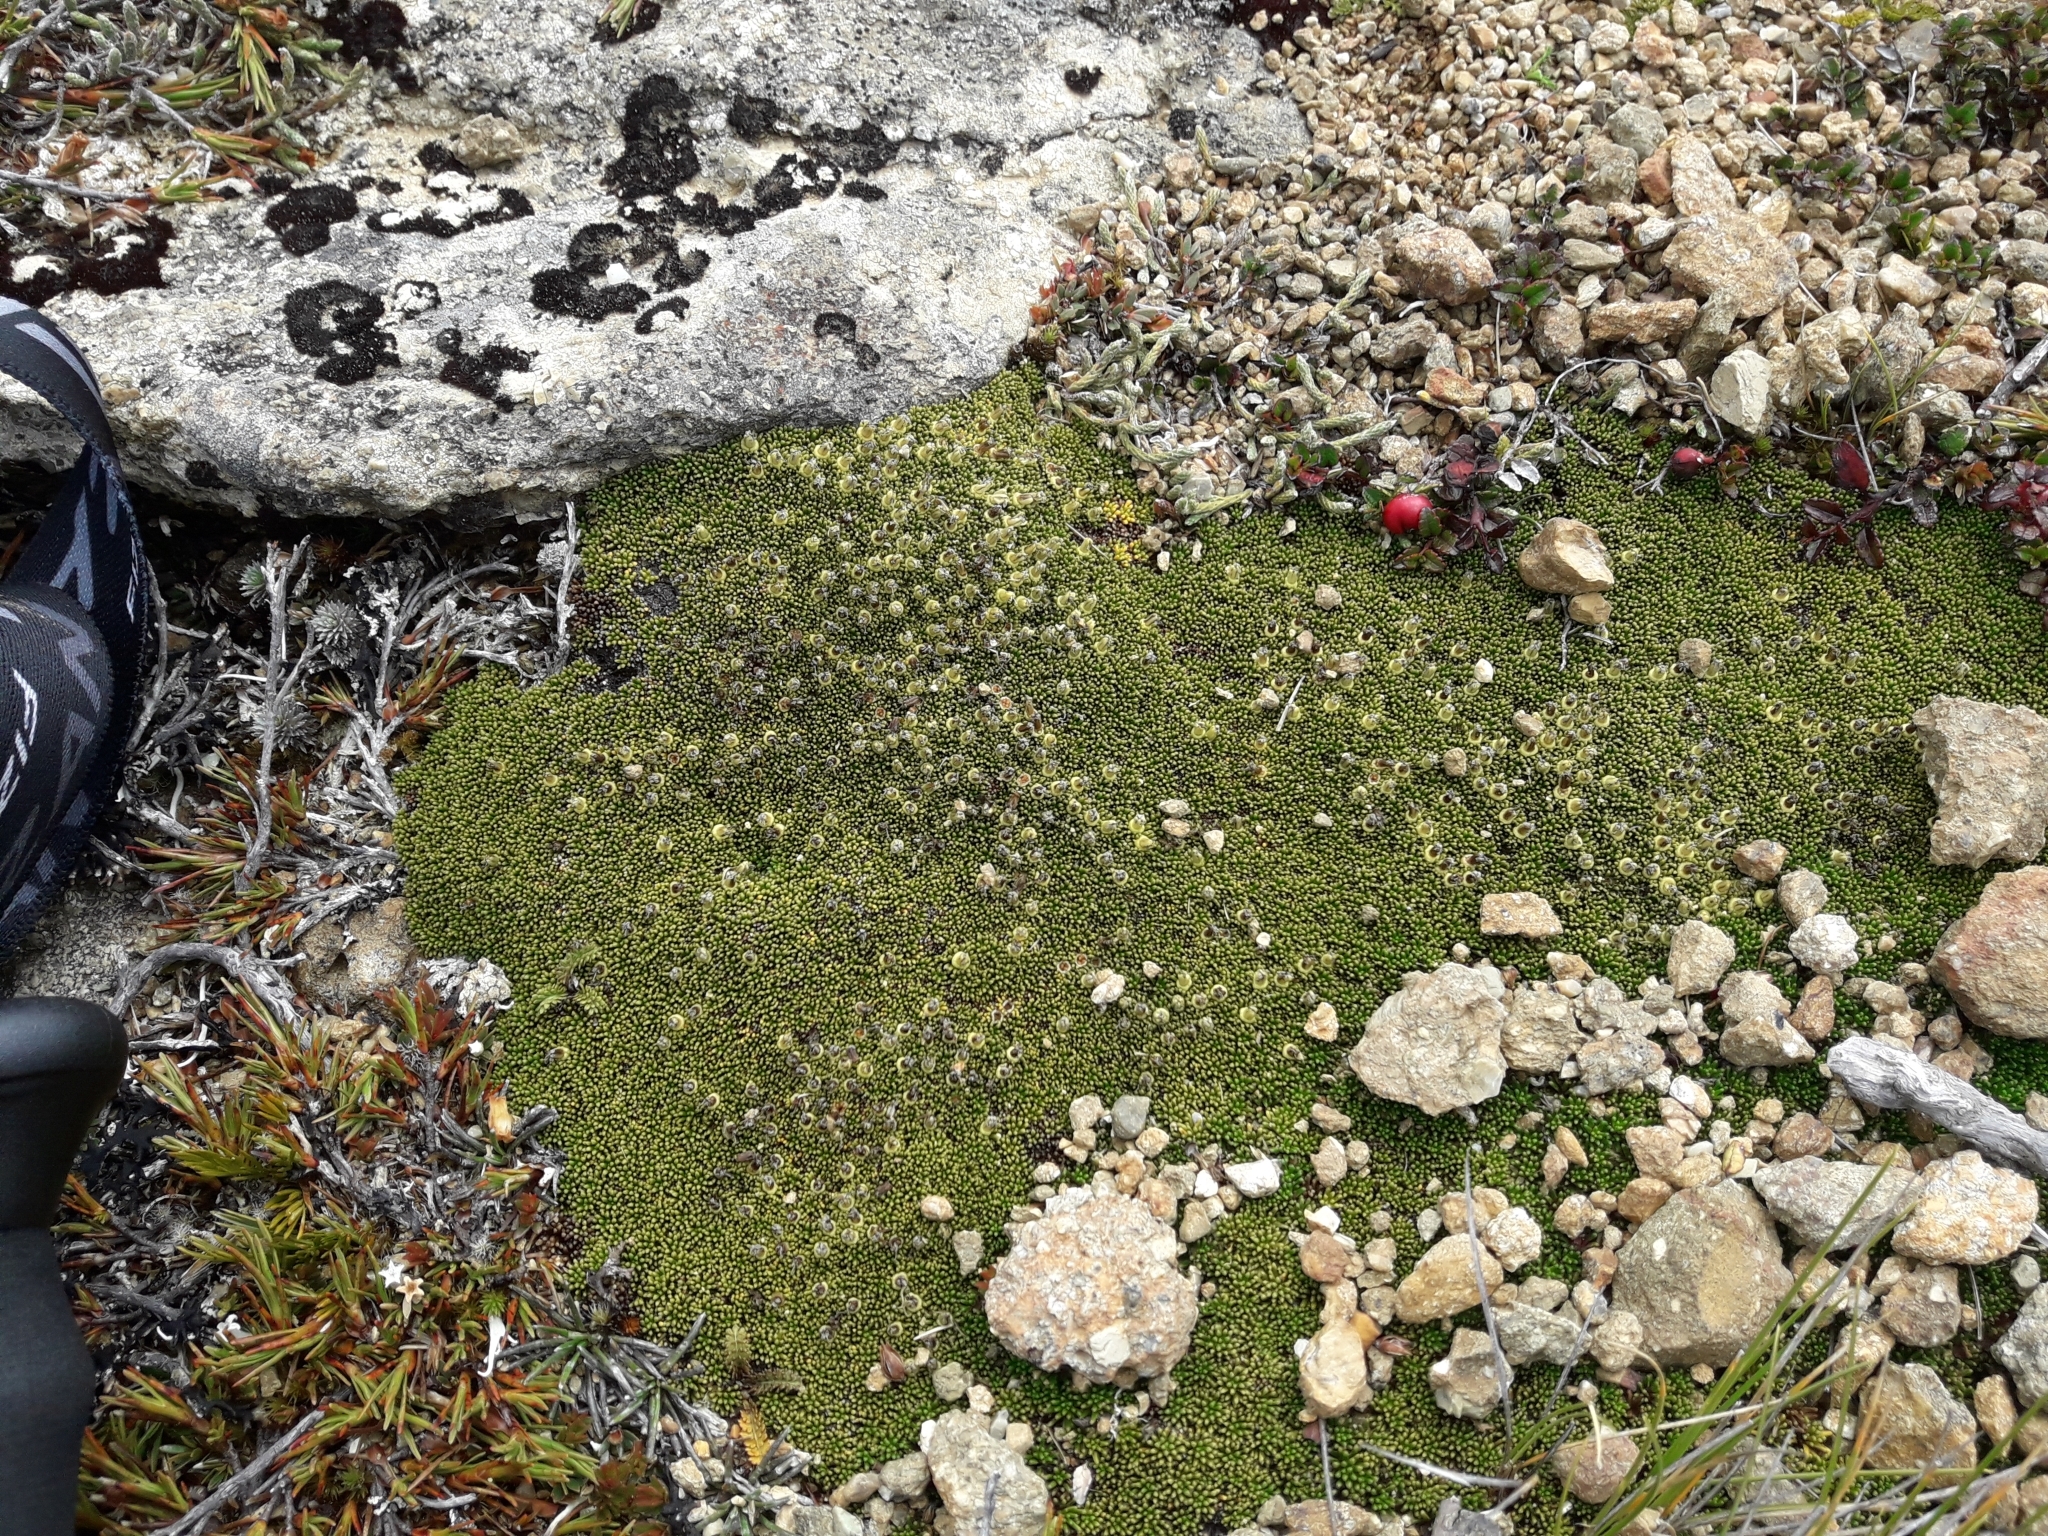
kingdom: Plantae
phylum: Tracheophyta
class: Magnoliopsida
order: Asterales
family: Stylidiaceae
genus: Phyllachne
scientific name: Phyllachne colensoi
